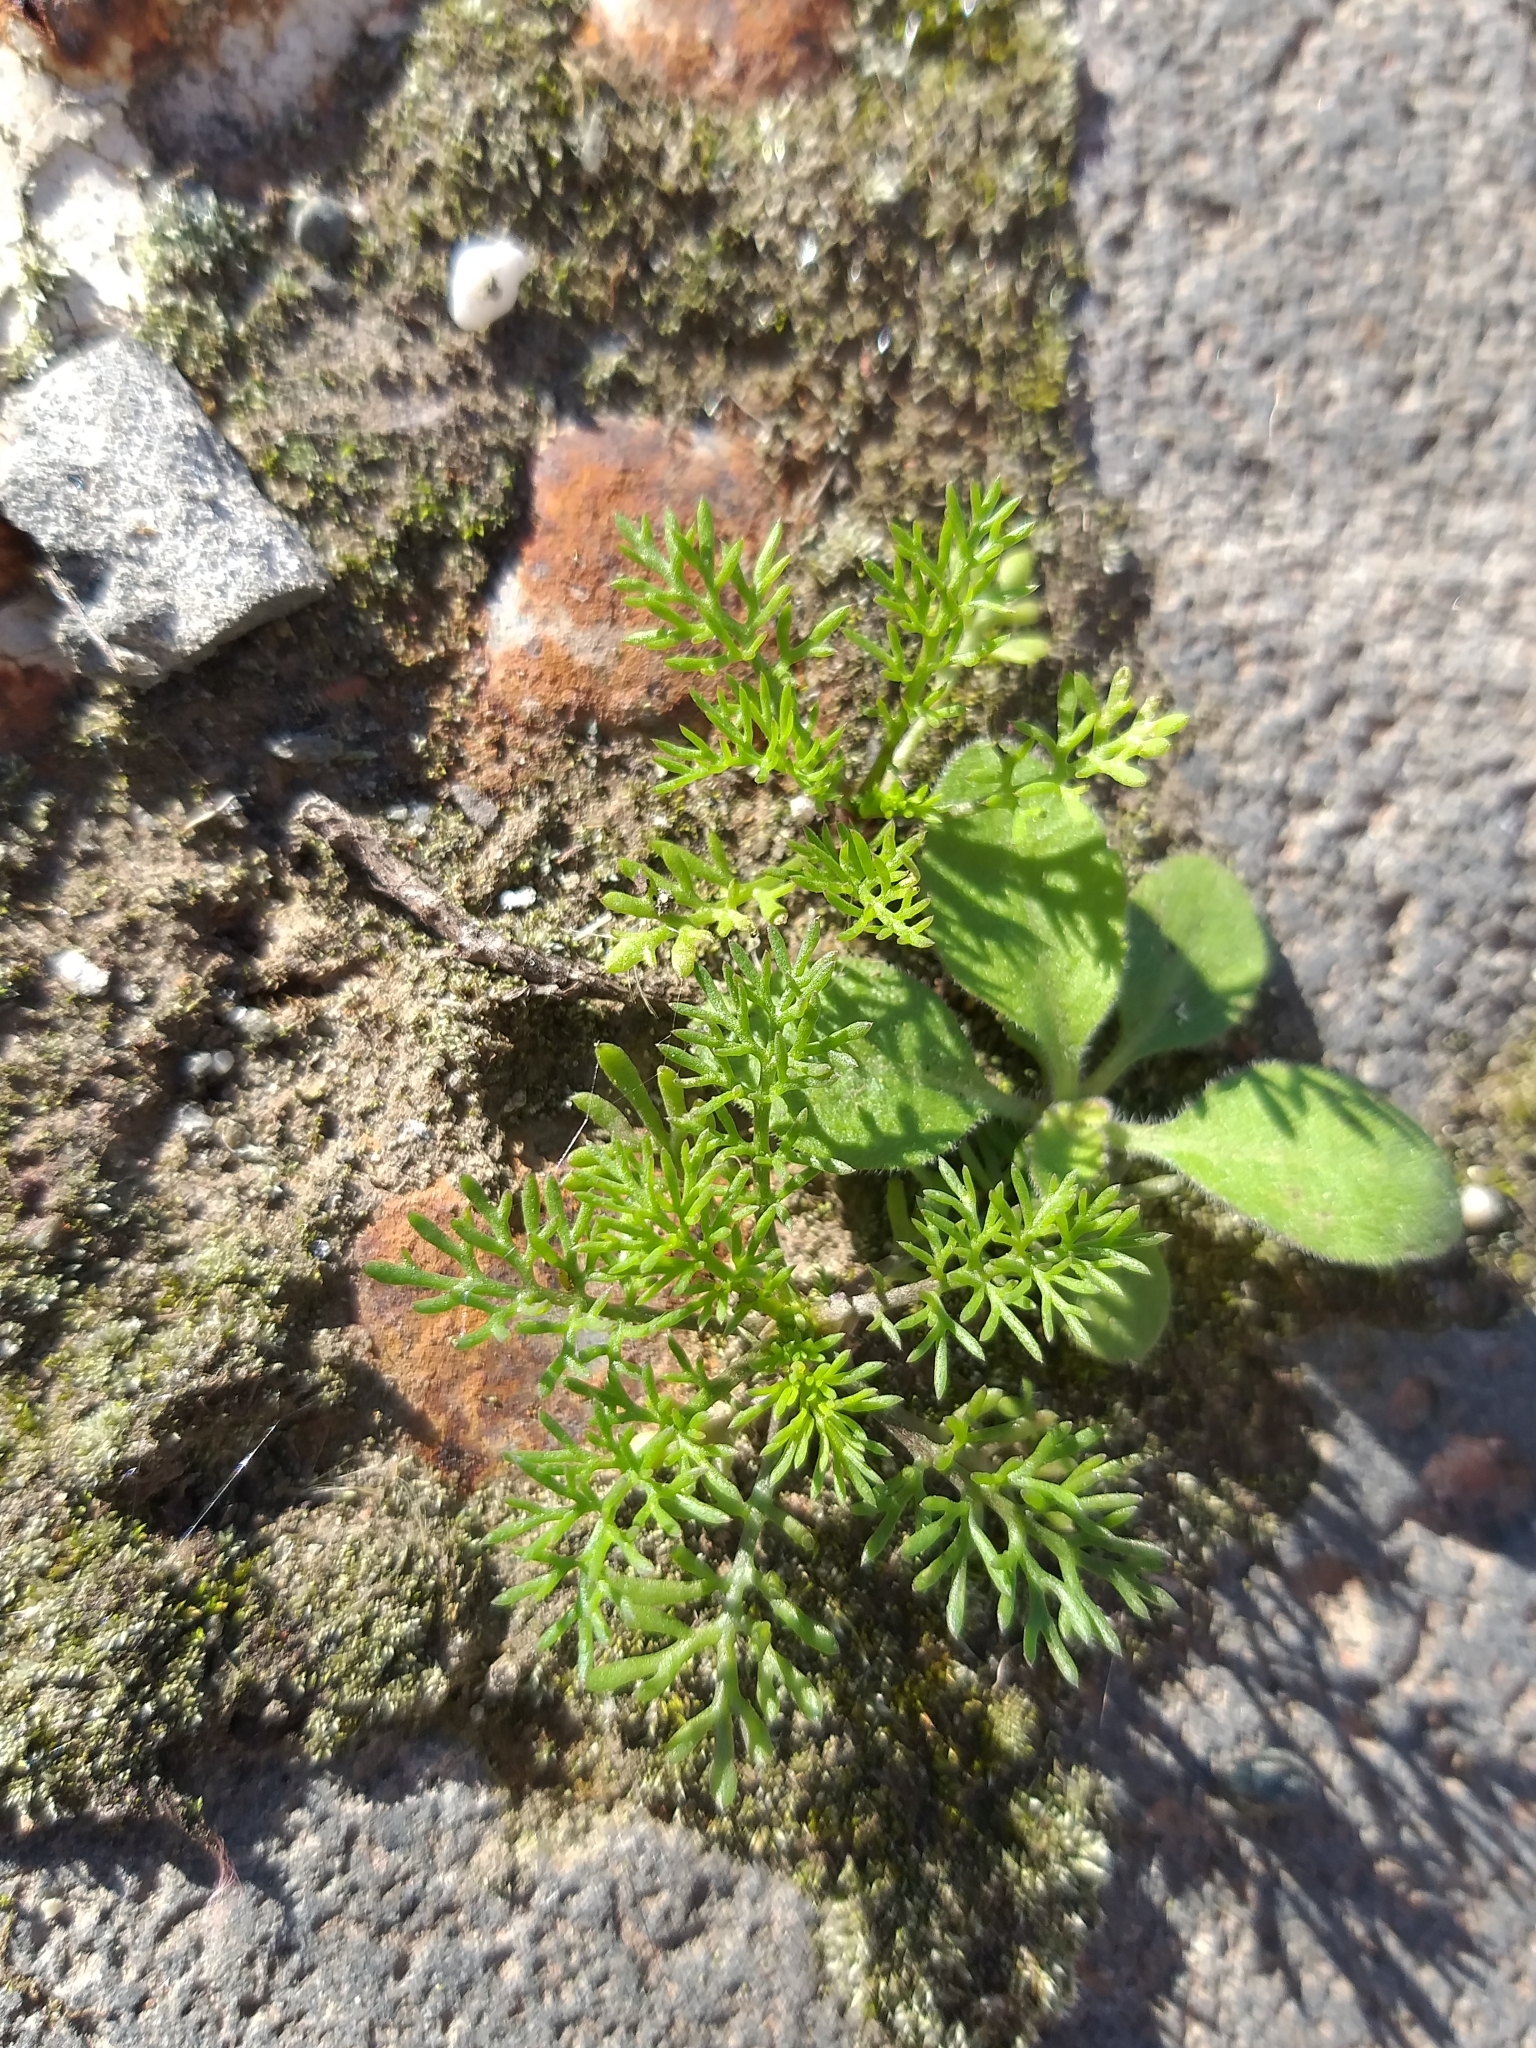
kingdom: Plantae
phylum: Tracheophyta
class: Magnoliopsida
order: Asterales
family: Asteraceae
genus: Soliva
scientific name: Soliva sessilis
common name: Field burrweed
